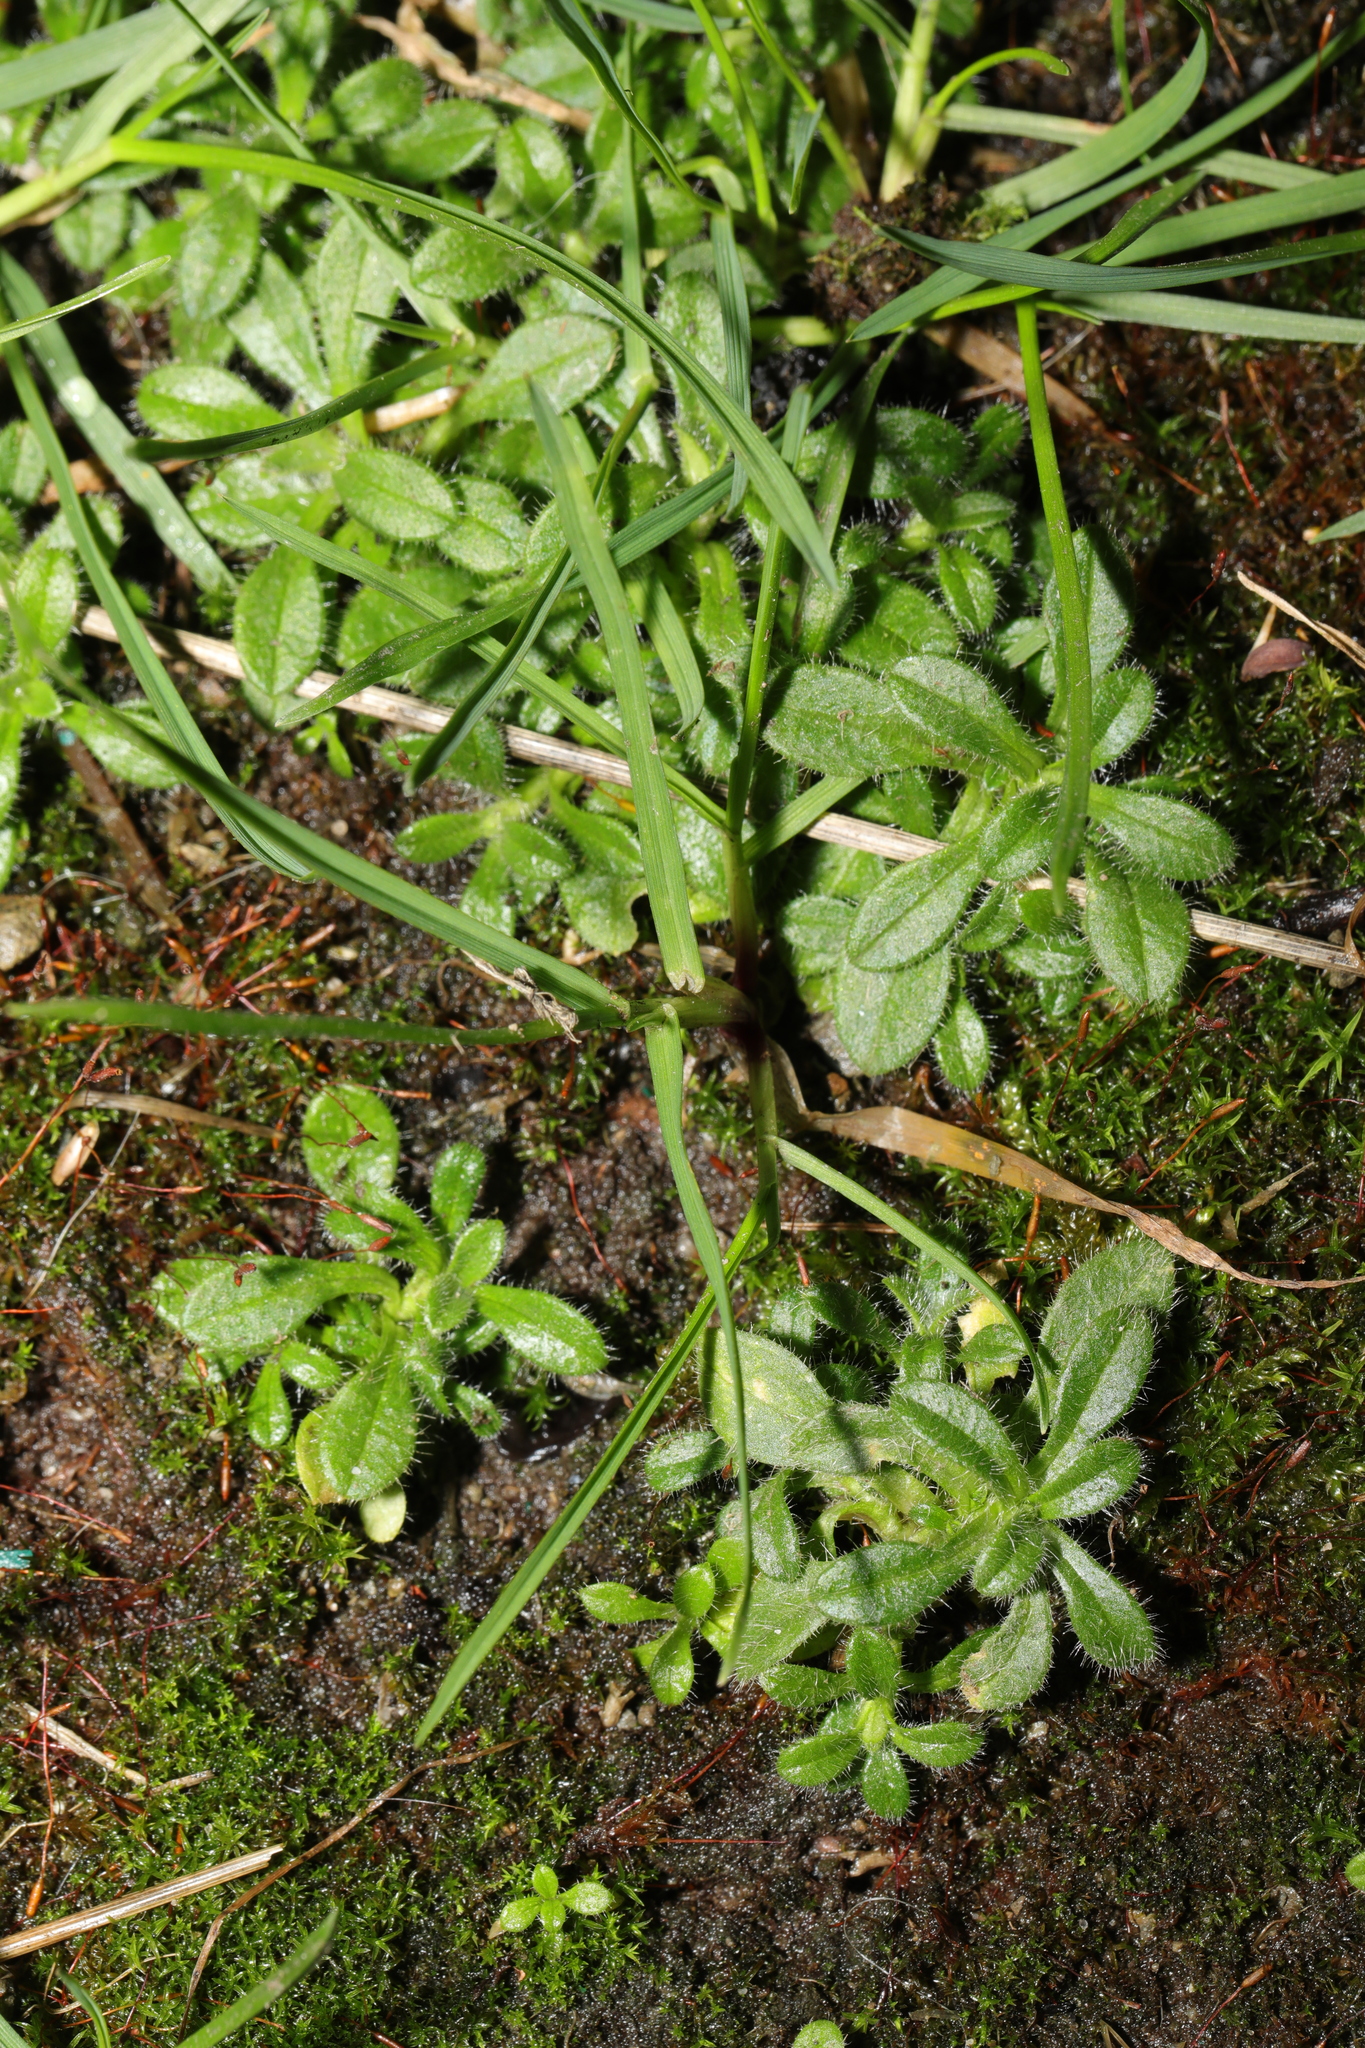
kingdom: Plantae
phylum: Tracheophyta
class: Magnoliopsida
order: Caryophyllales
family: Caryophyllaceae
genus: Cerastium
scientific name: Cerastium fontanum
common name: Common mouse-ear
